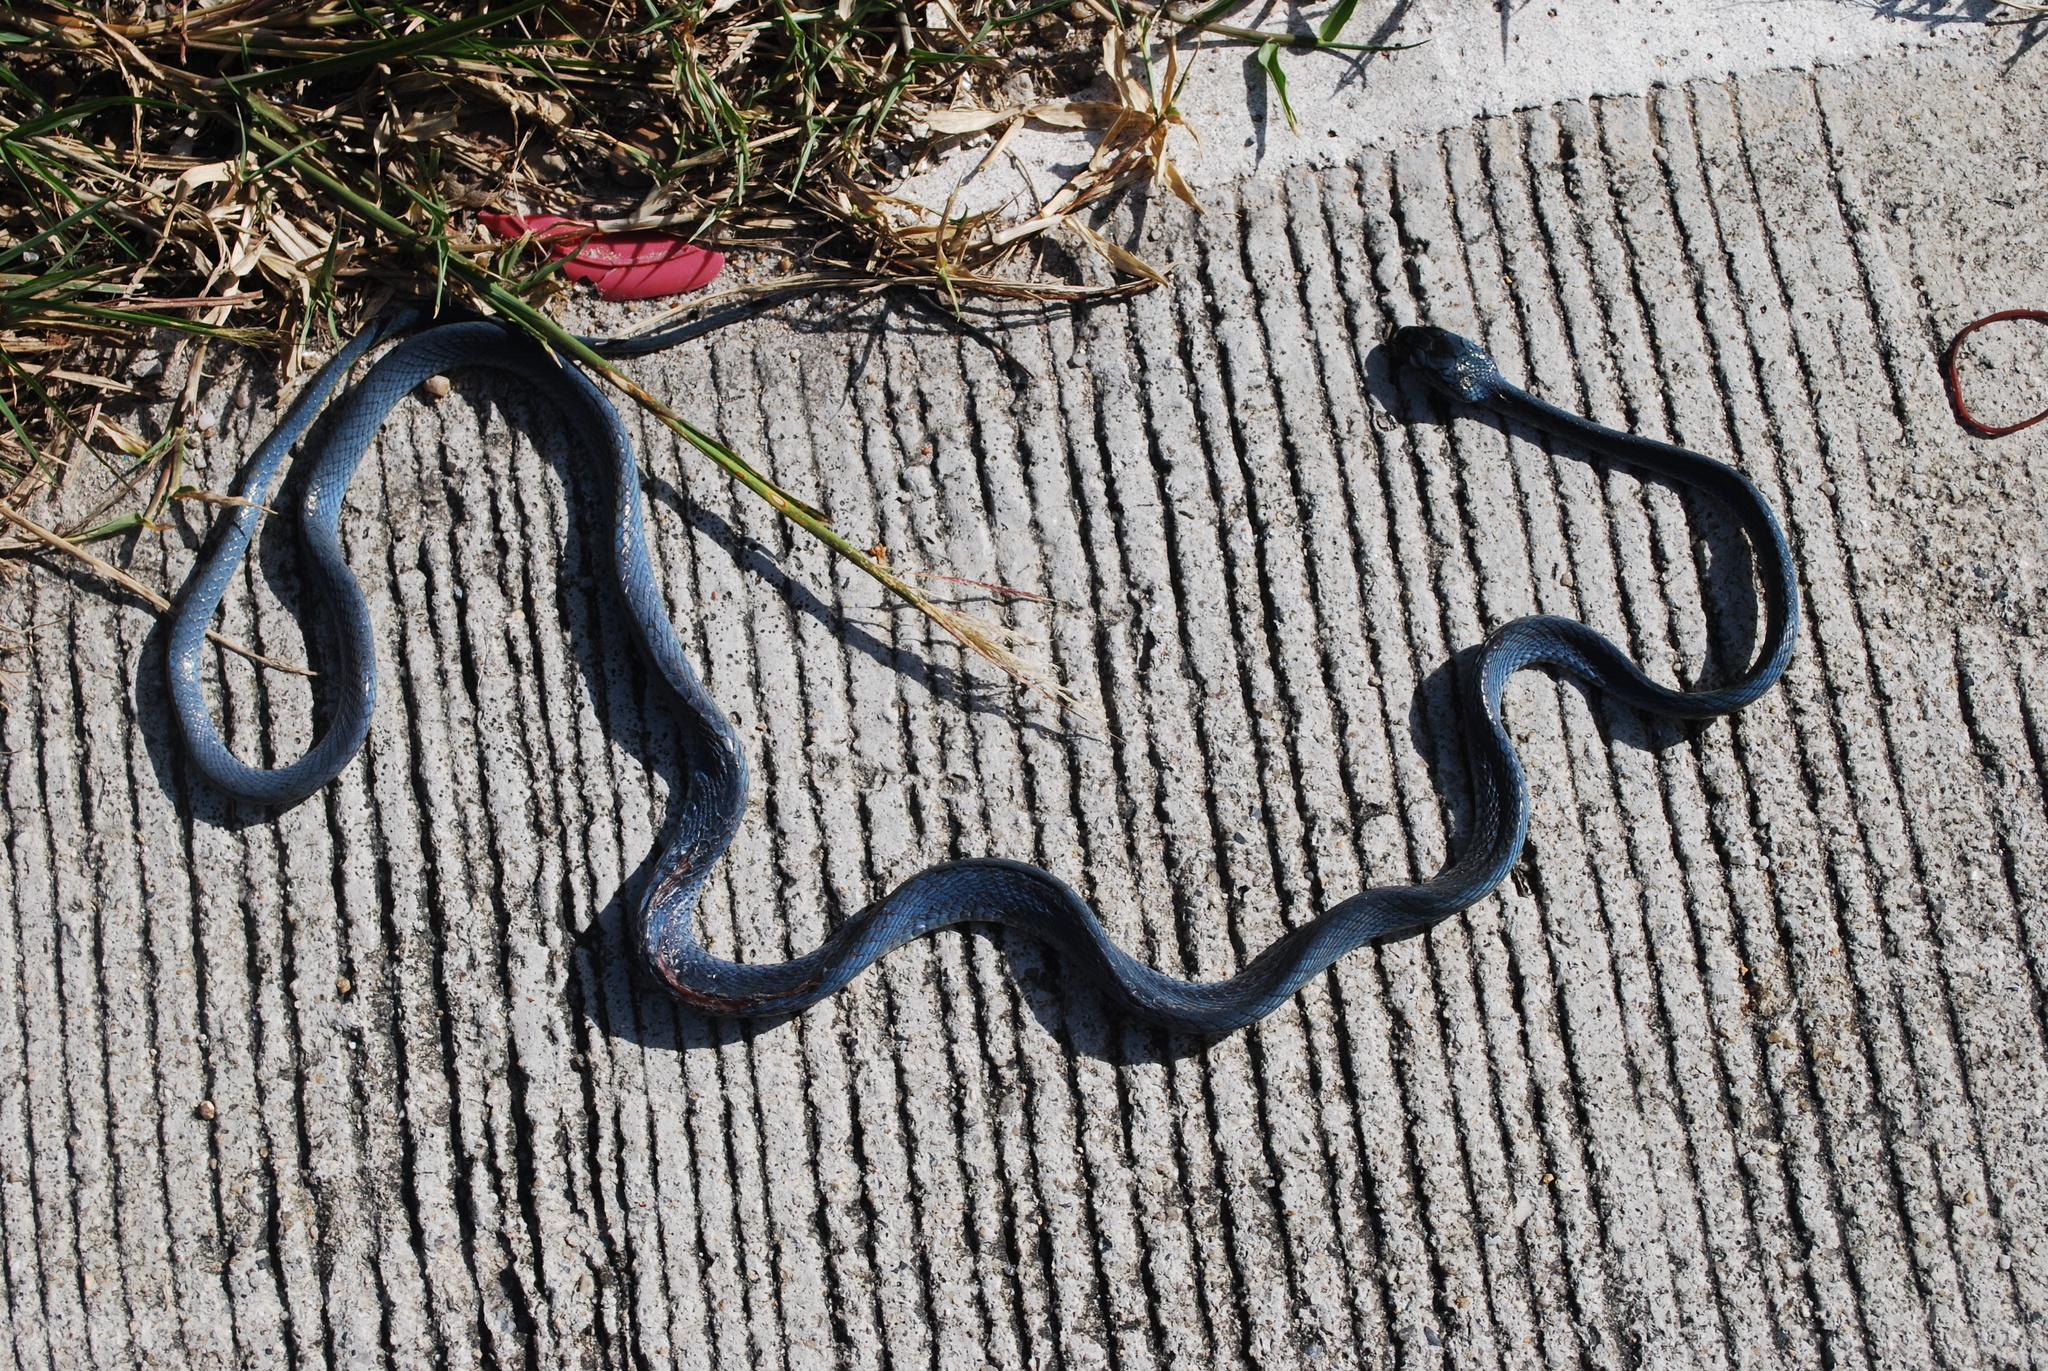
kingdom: Animalia
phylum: Chordata
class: Squamata
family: Colubridae
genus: Boiga
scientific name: Boiga cyanea
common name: Green cat snake
